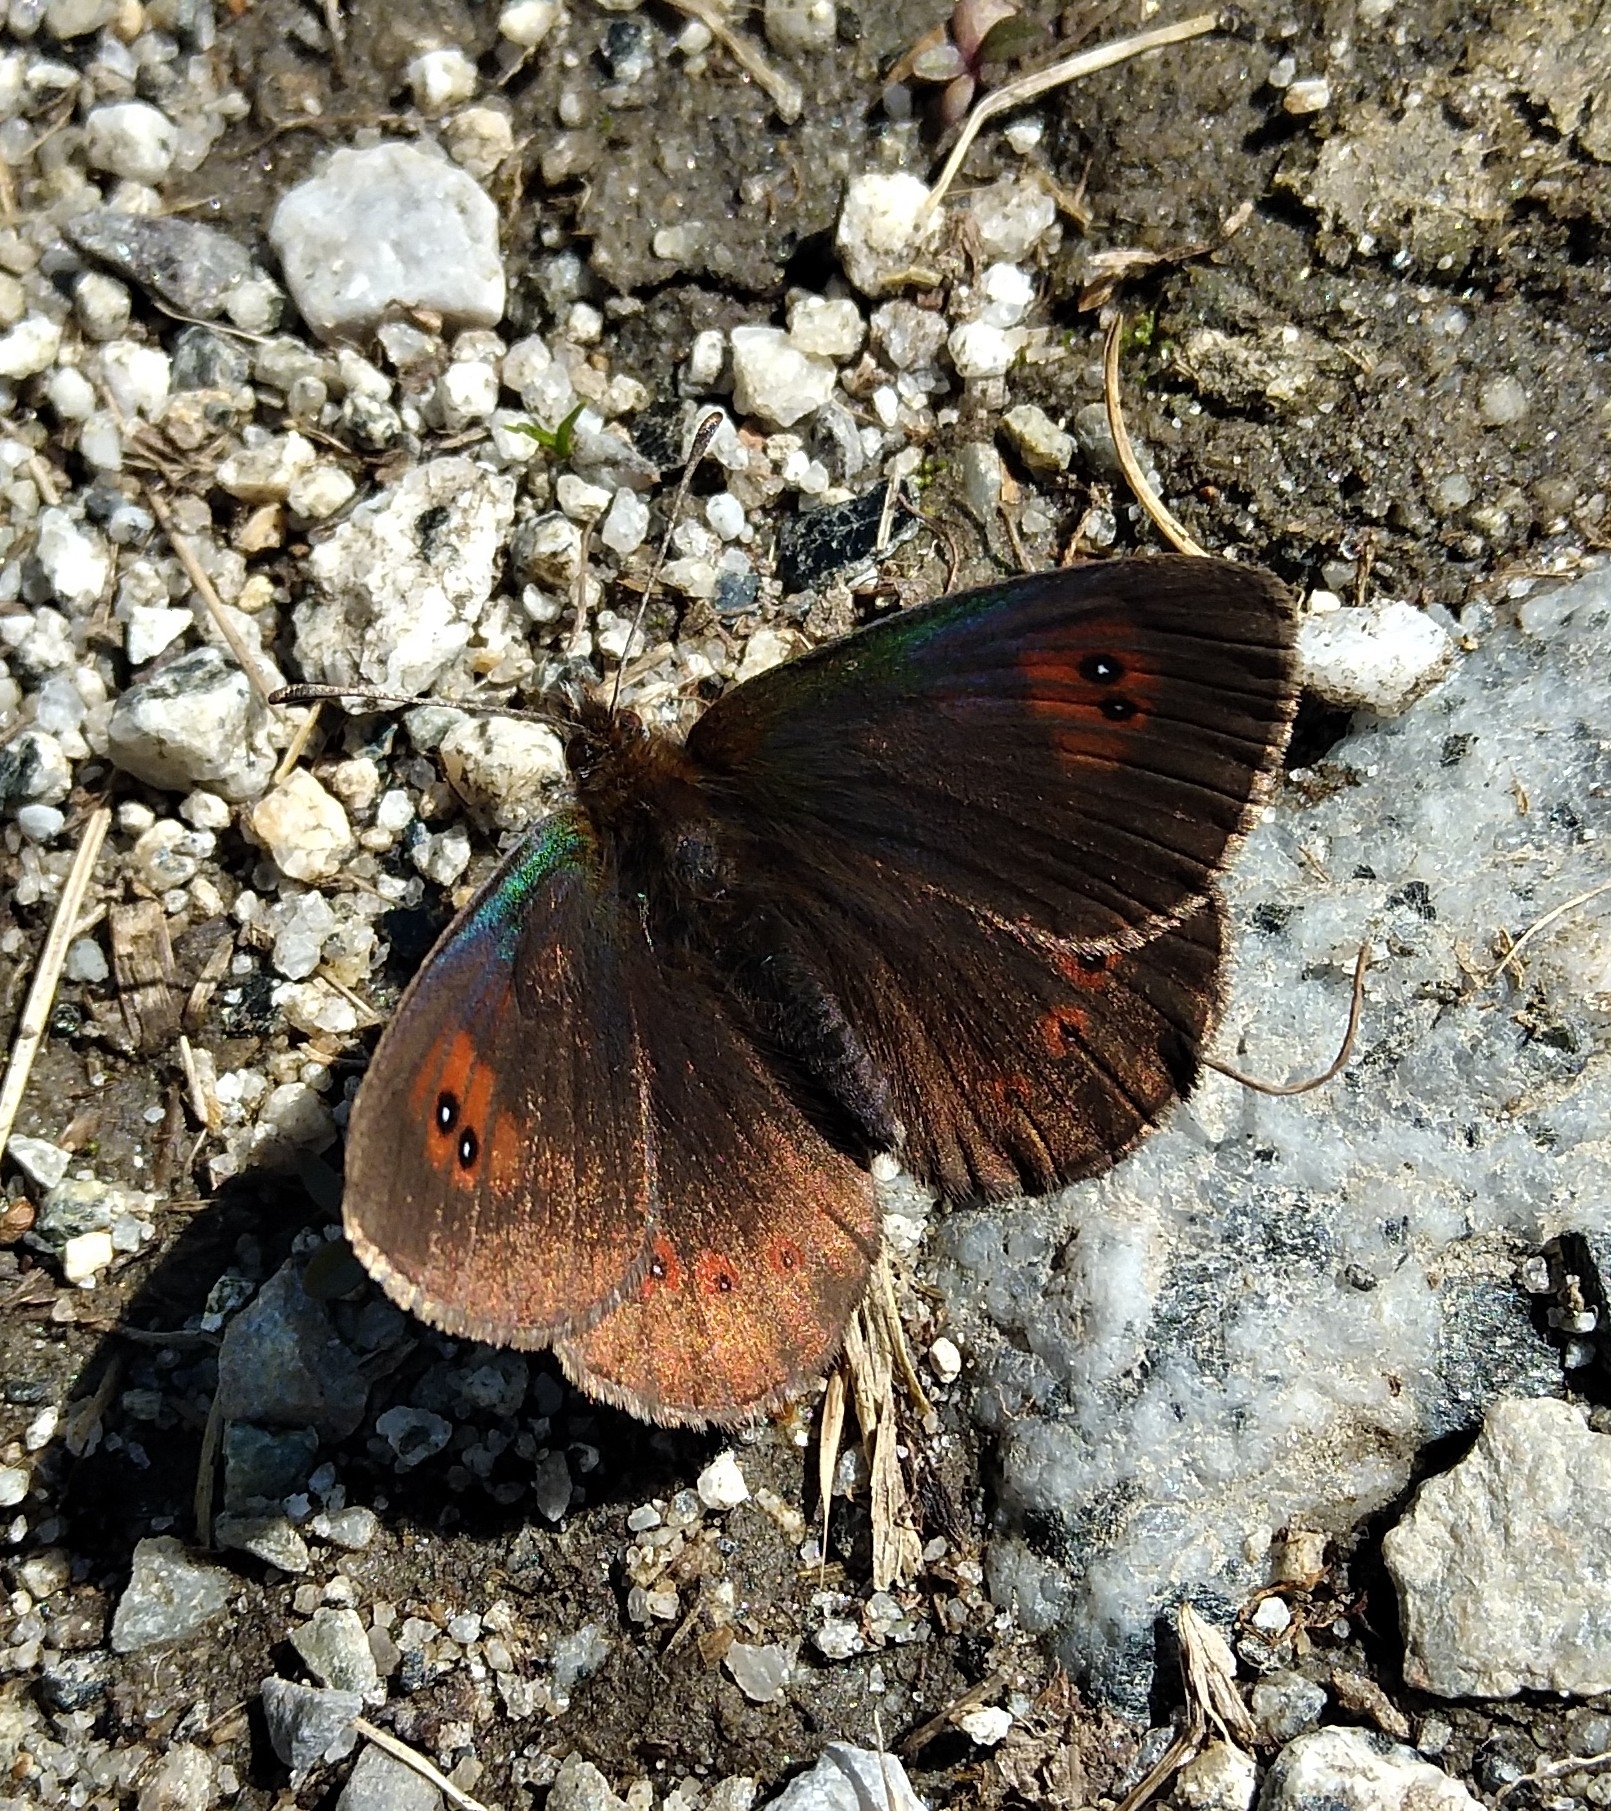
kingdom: Animalia
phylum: Arthropoda
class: Insecta
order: Lepidoptera
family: Nymphalidae
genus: Erebia
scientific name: Erebia cassioides
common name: Common brassy ringlet
